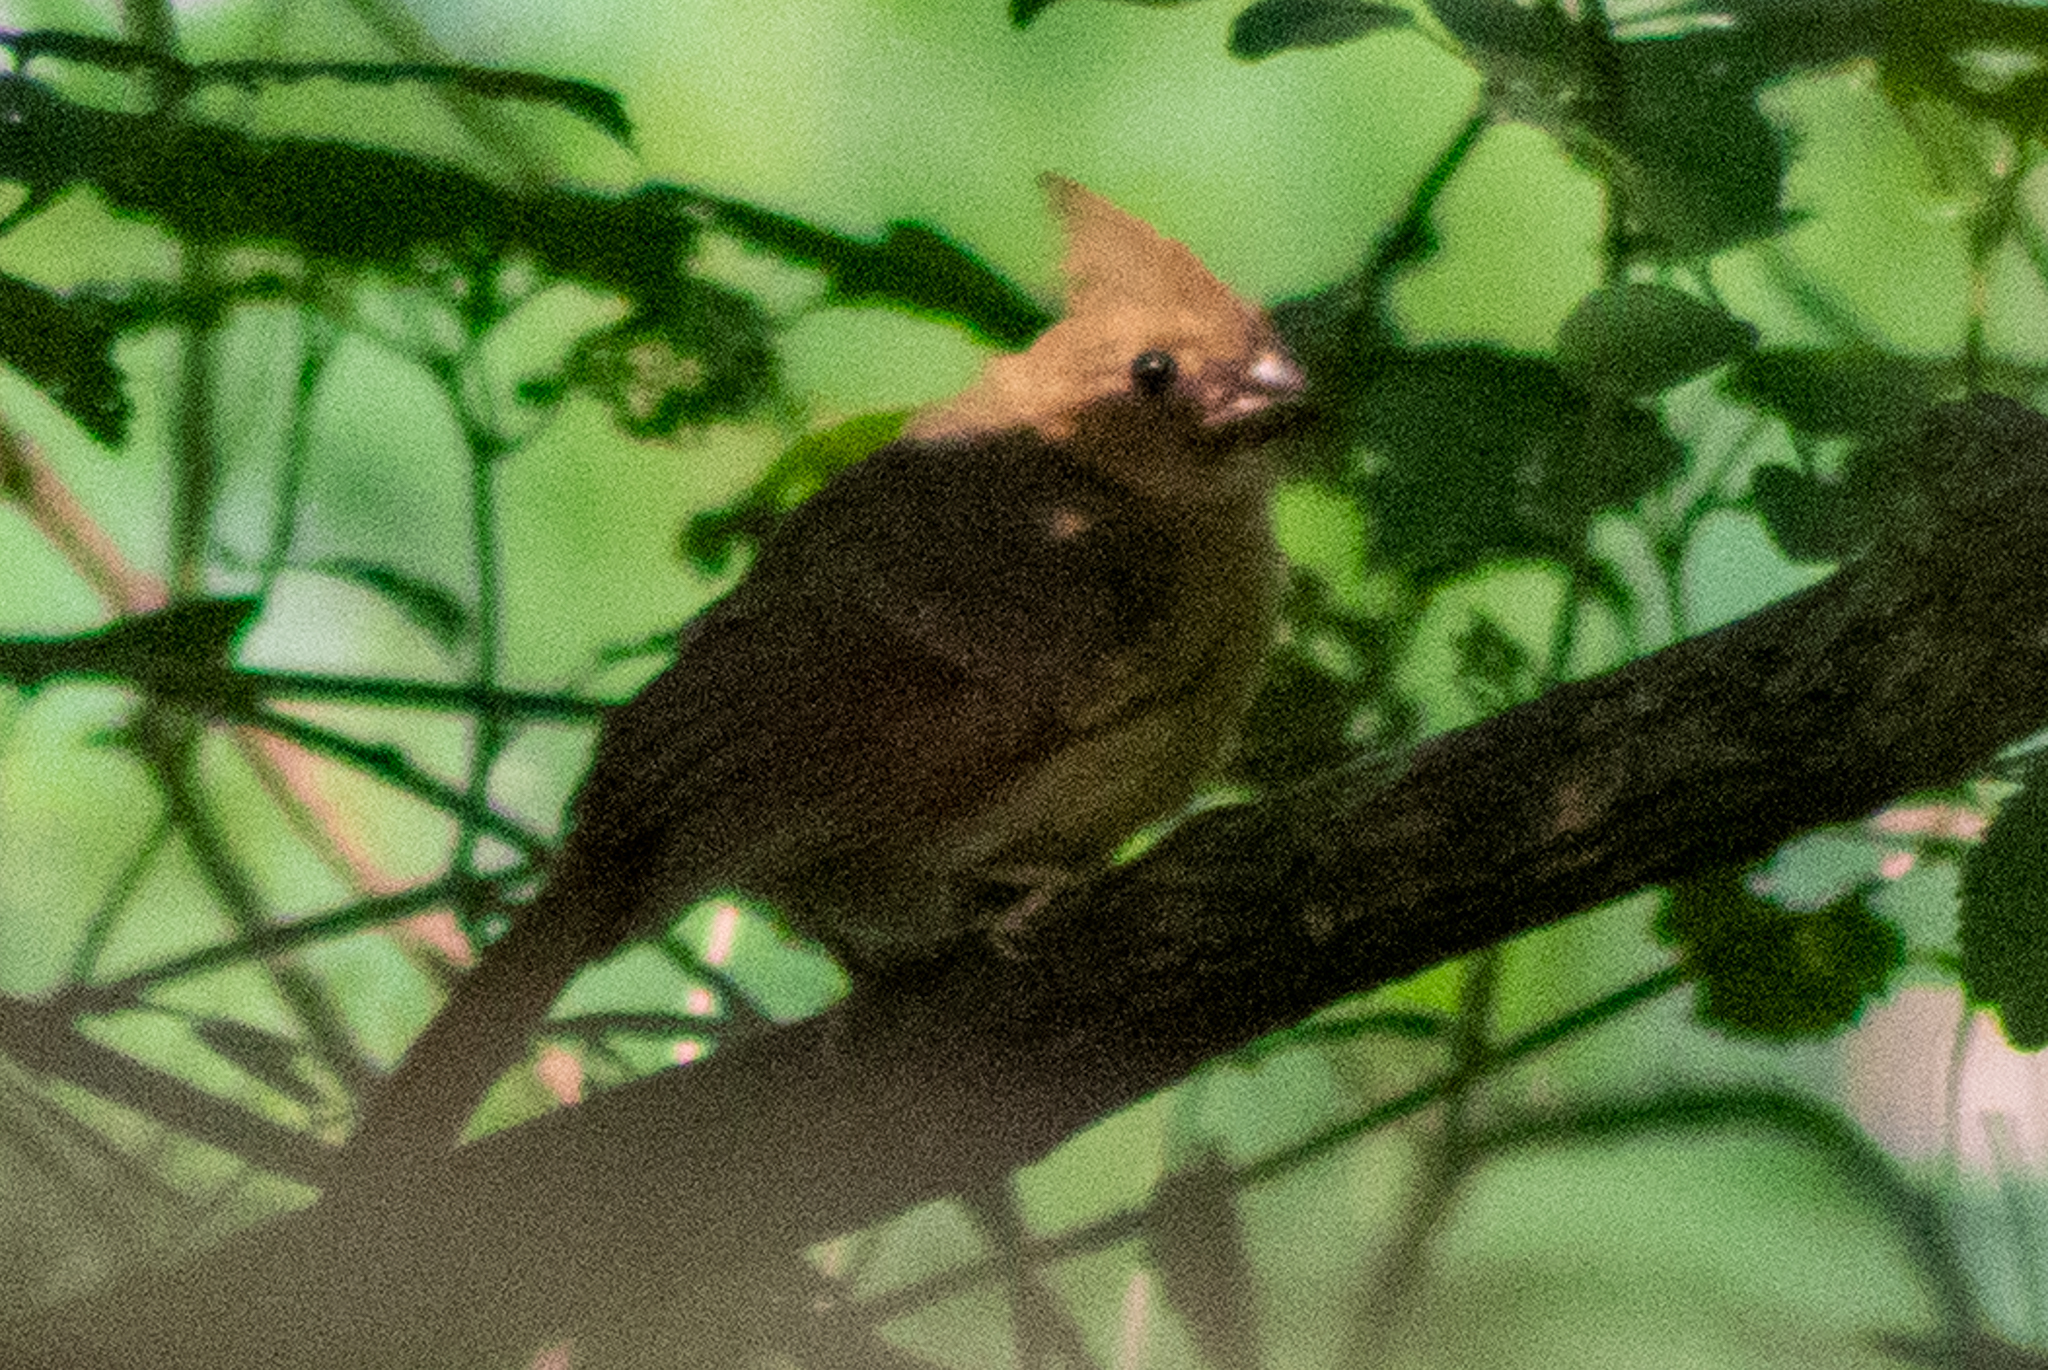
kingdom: Animalia
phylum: Chordata
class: Aves
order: Passeriformes
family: Cardinalidae
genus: Cardinalis
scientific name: Cardinalis cardinalis
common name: Northern cardinal
